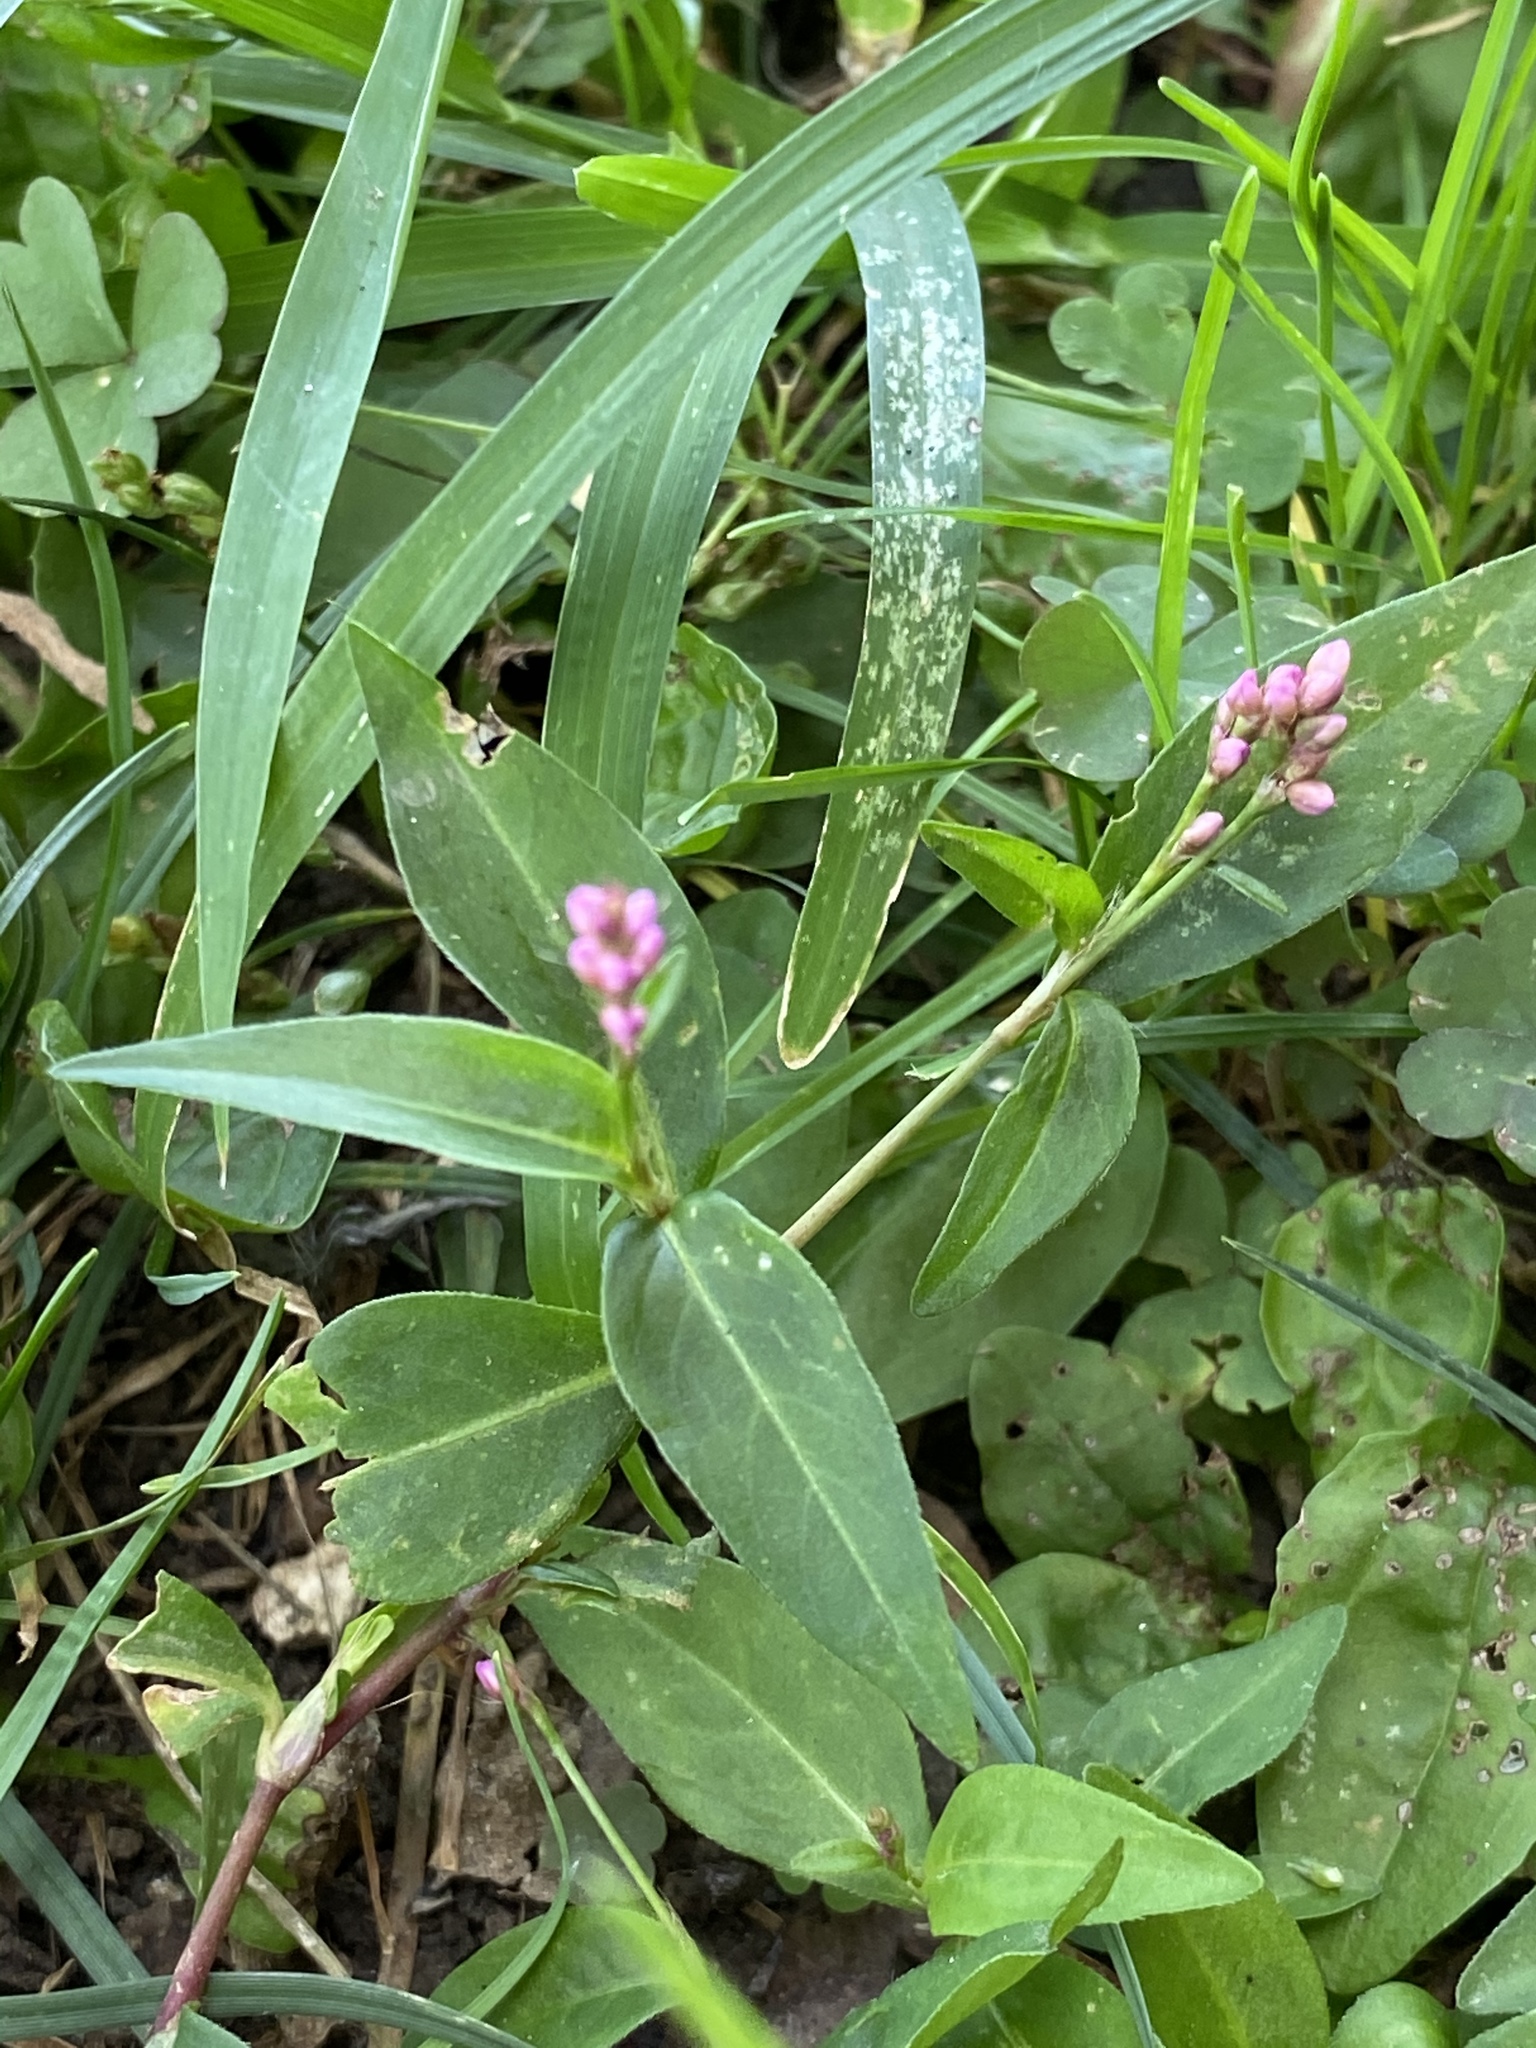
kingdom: Plantae
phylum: Tracheophyta
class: Magnoliopsida
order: Caryophyllales
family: Polygonaceae
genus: Persicaria
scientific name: Persicaria longiseta
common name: Bristly lady's-thumb
